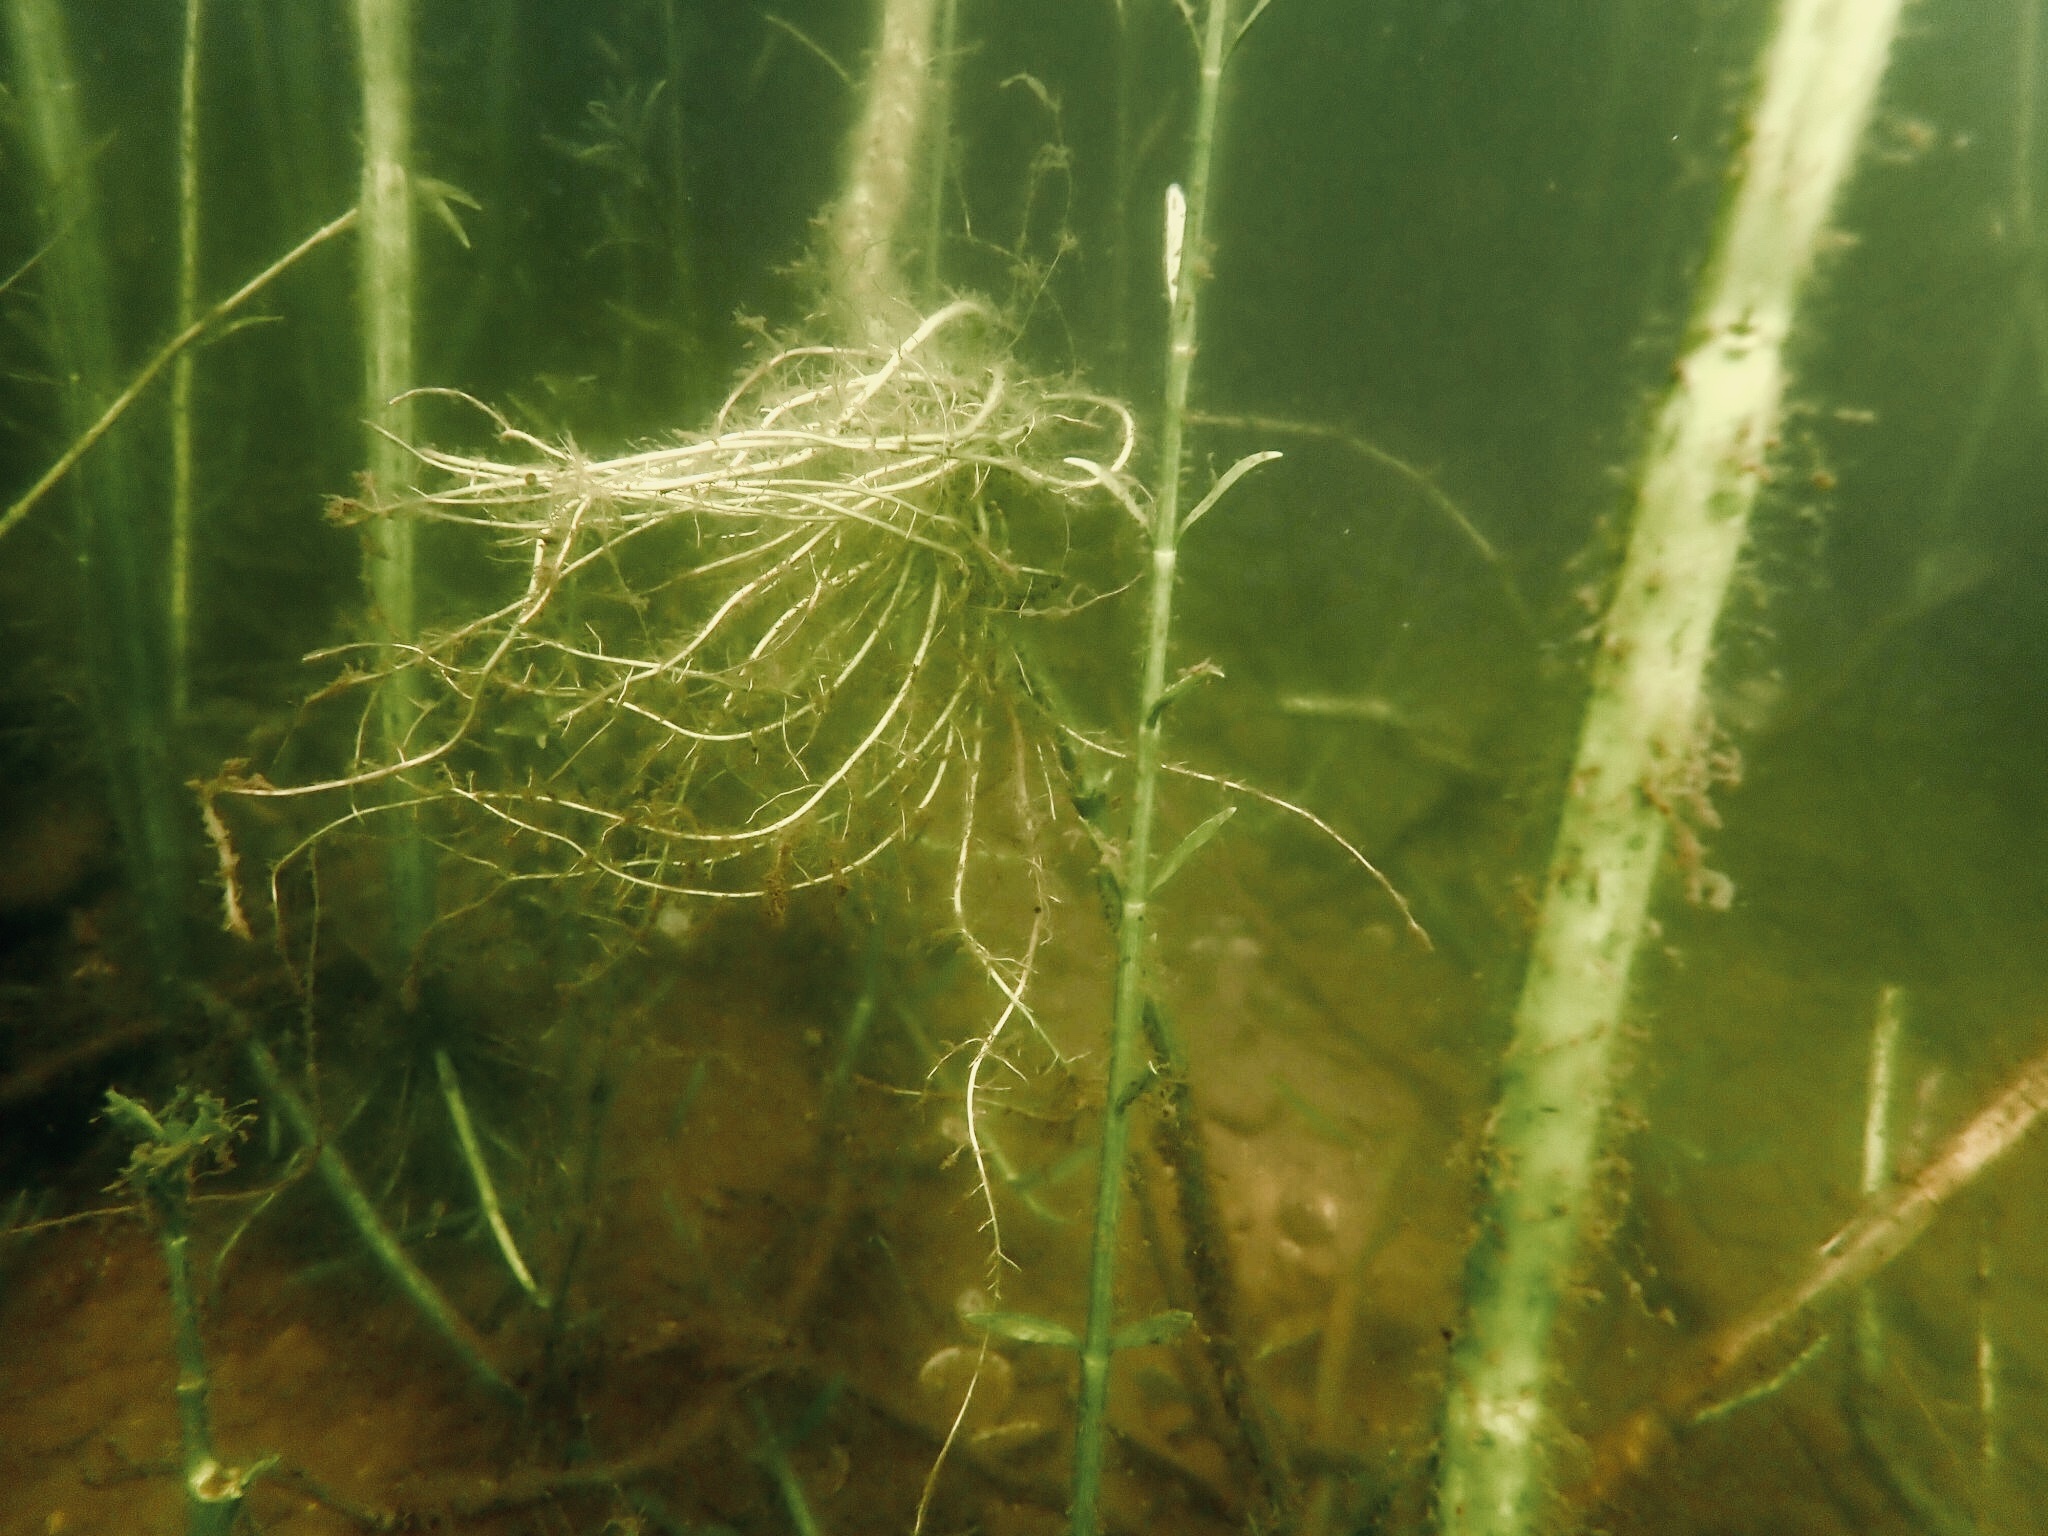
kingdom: Plantae
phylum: Tracheophyta
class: Magnoliopsida
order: Lamiales
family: Acanthaceae
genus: Dianthera
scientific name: Dianthera americana
